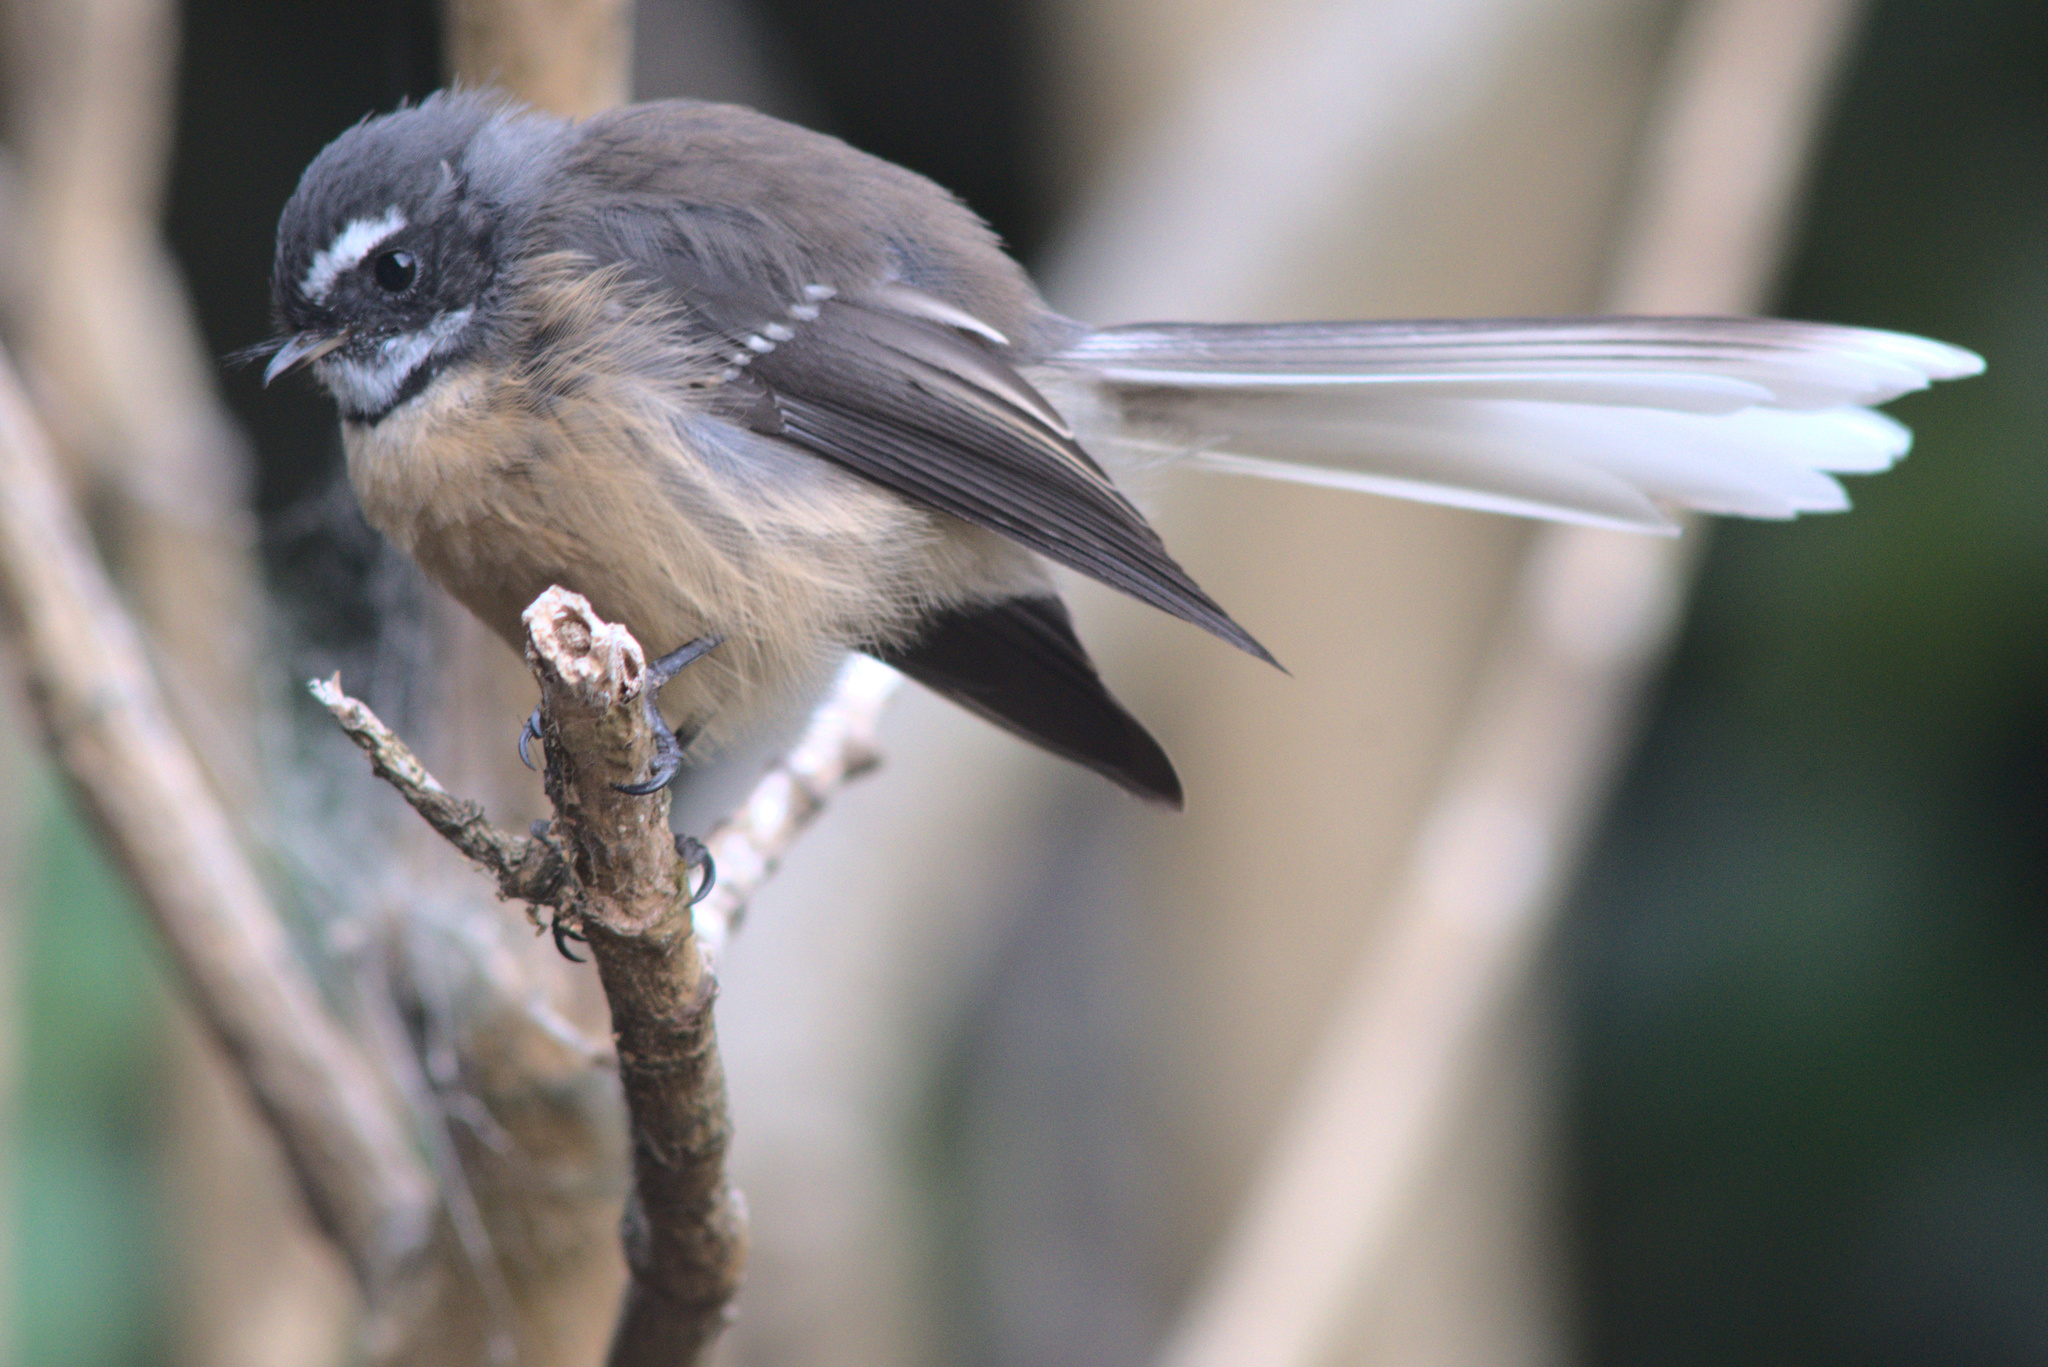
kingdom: Animalia
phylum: Chordata
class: Aves
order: Passeriformes
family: Rhipiduridae
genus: Rhipidura
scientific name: Rhipidura fuliginosa
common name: New zealand fantail
